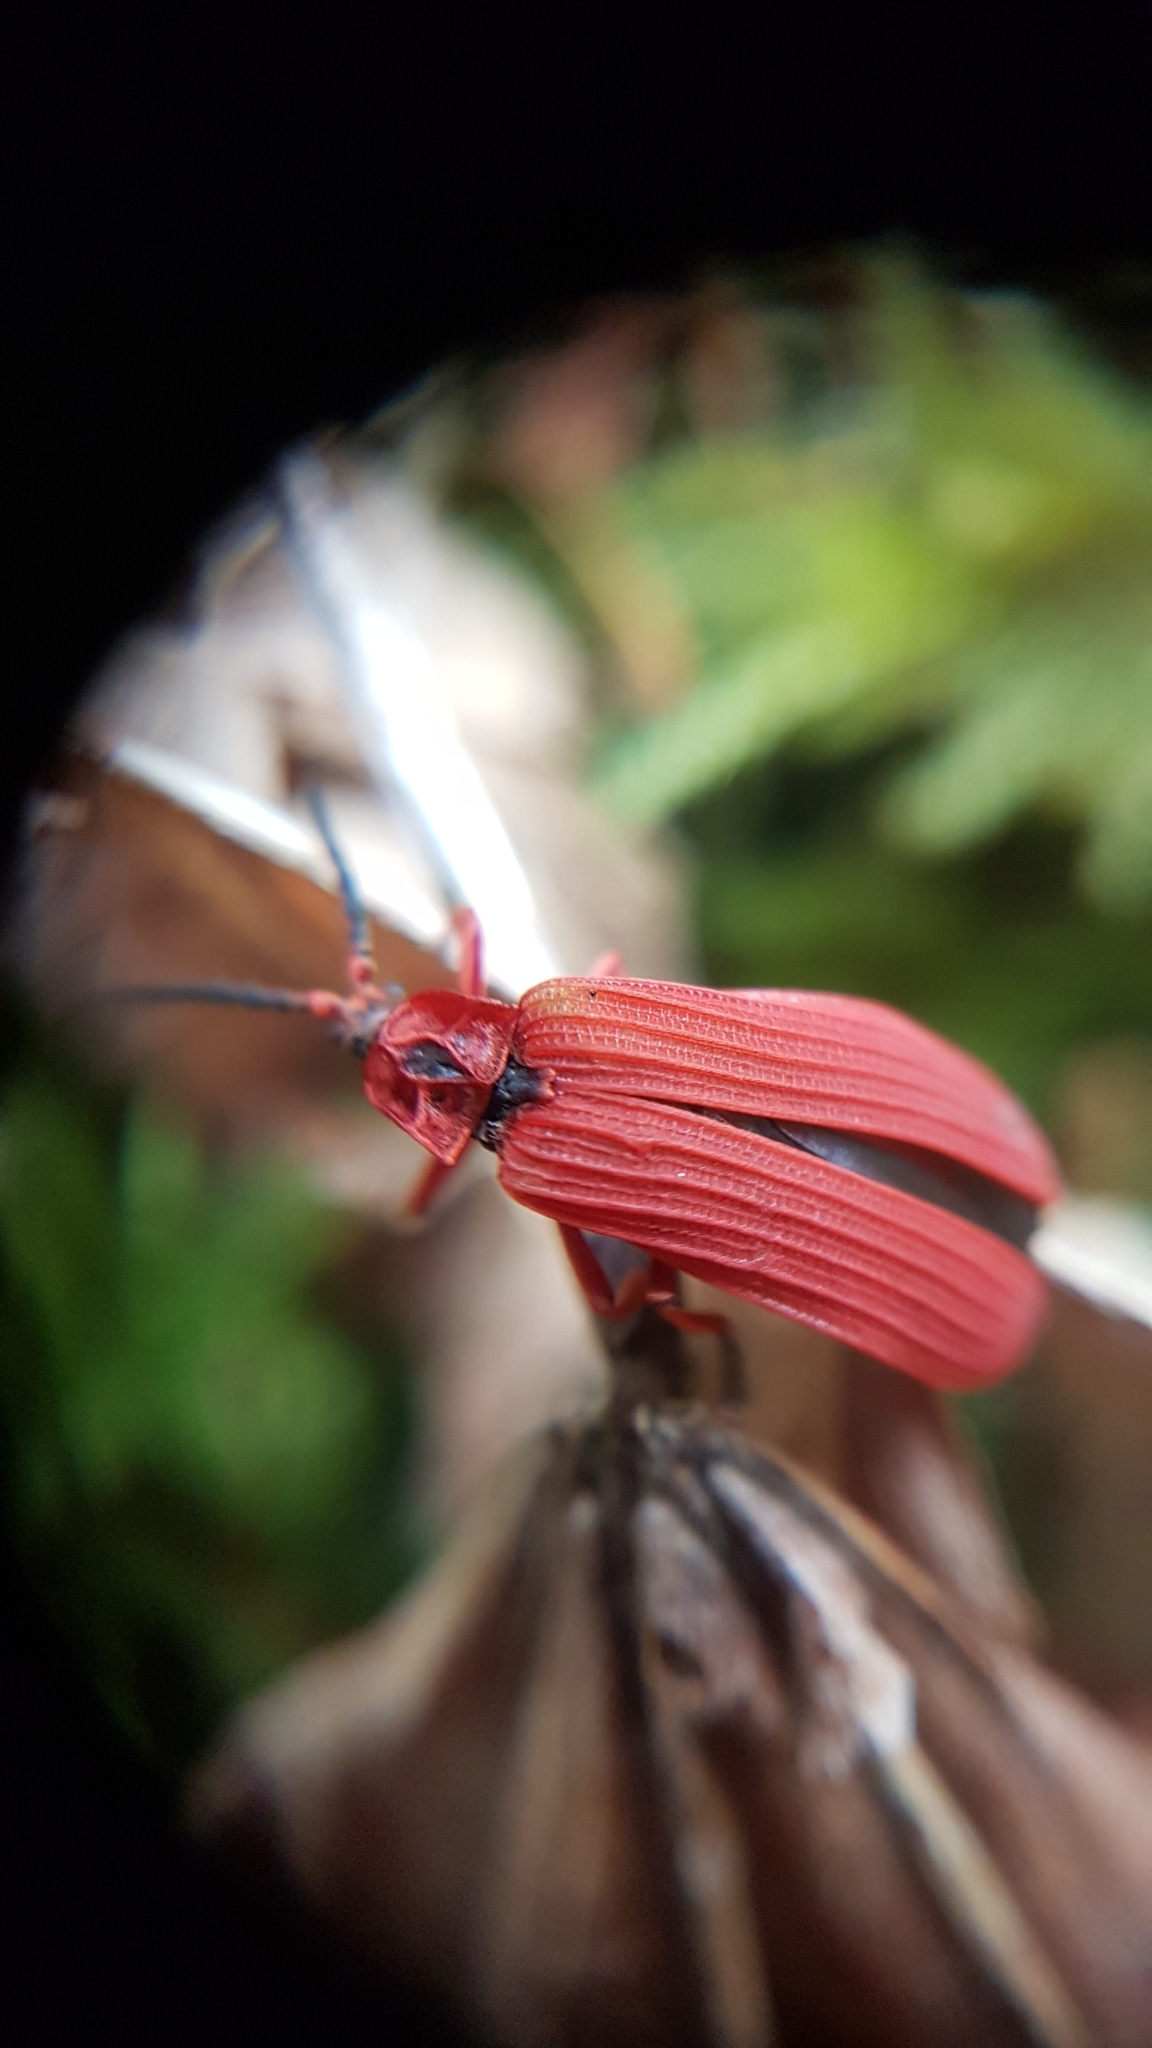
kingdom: Animalia
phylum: Arthropoda
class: Insecta
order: Coleoptera
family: Lycidae
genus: Dictyoptera
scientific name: Dictyoptera simplicipes
